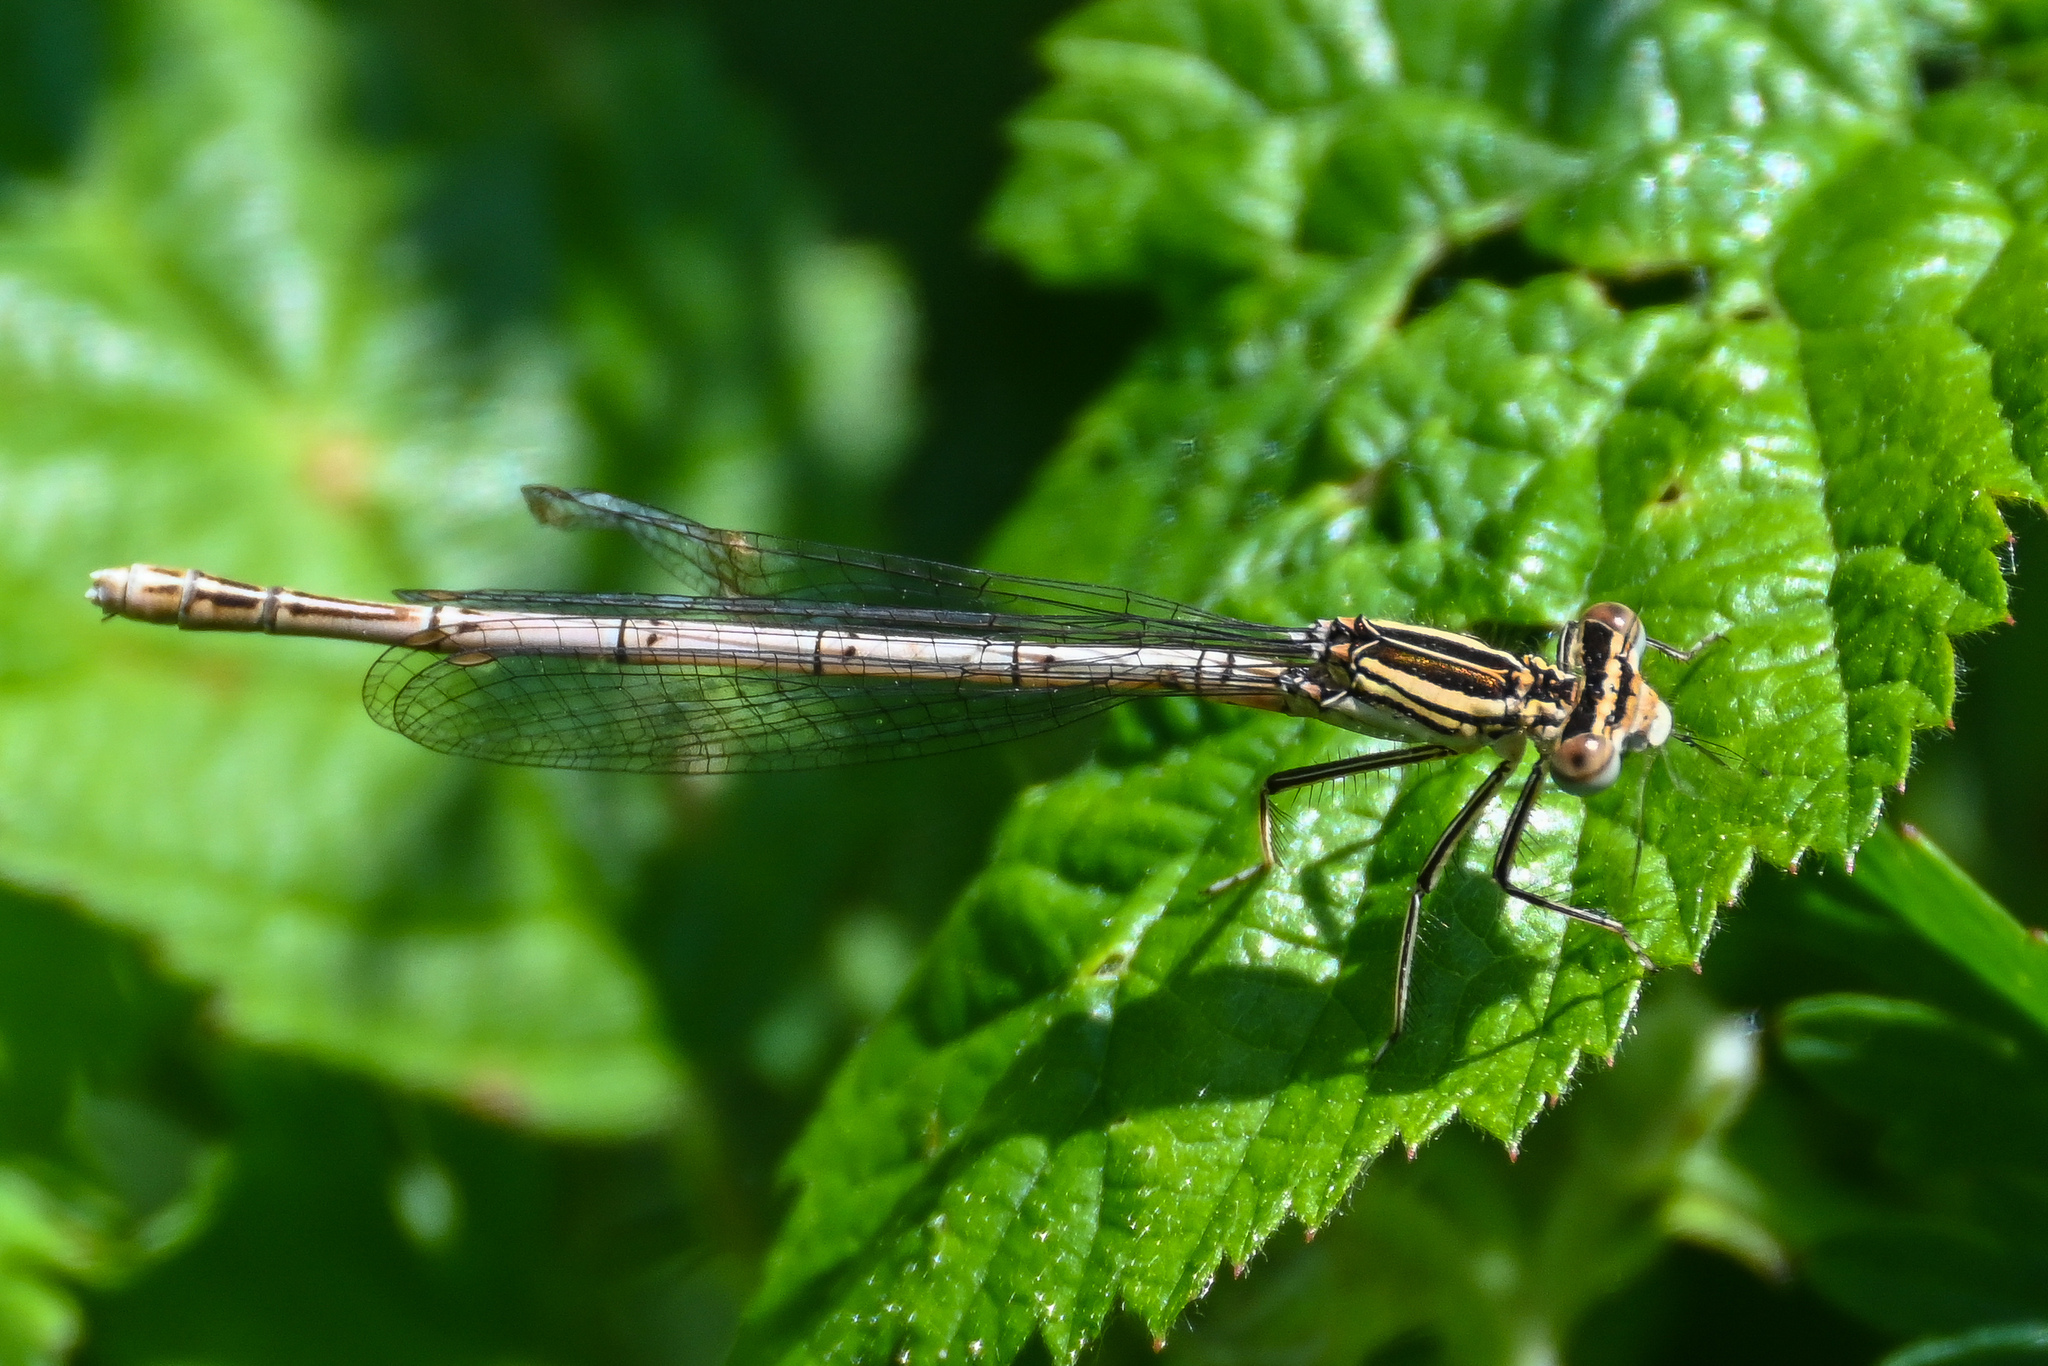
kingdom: Animalia
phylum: Arthropoda
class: Insecta
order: Odonata
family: Platycnemididae
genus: Platycnemis
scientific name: Platycnemis pennipes
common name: White-legged damselfly
